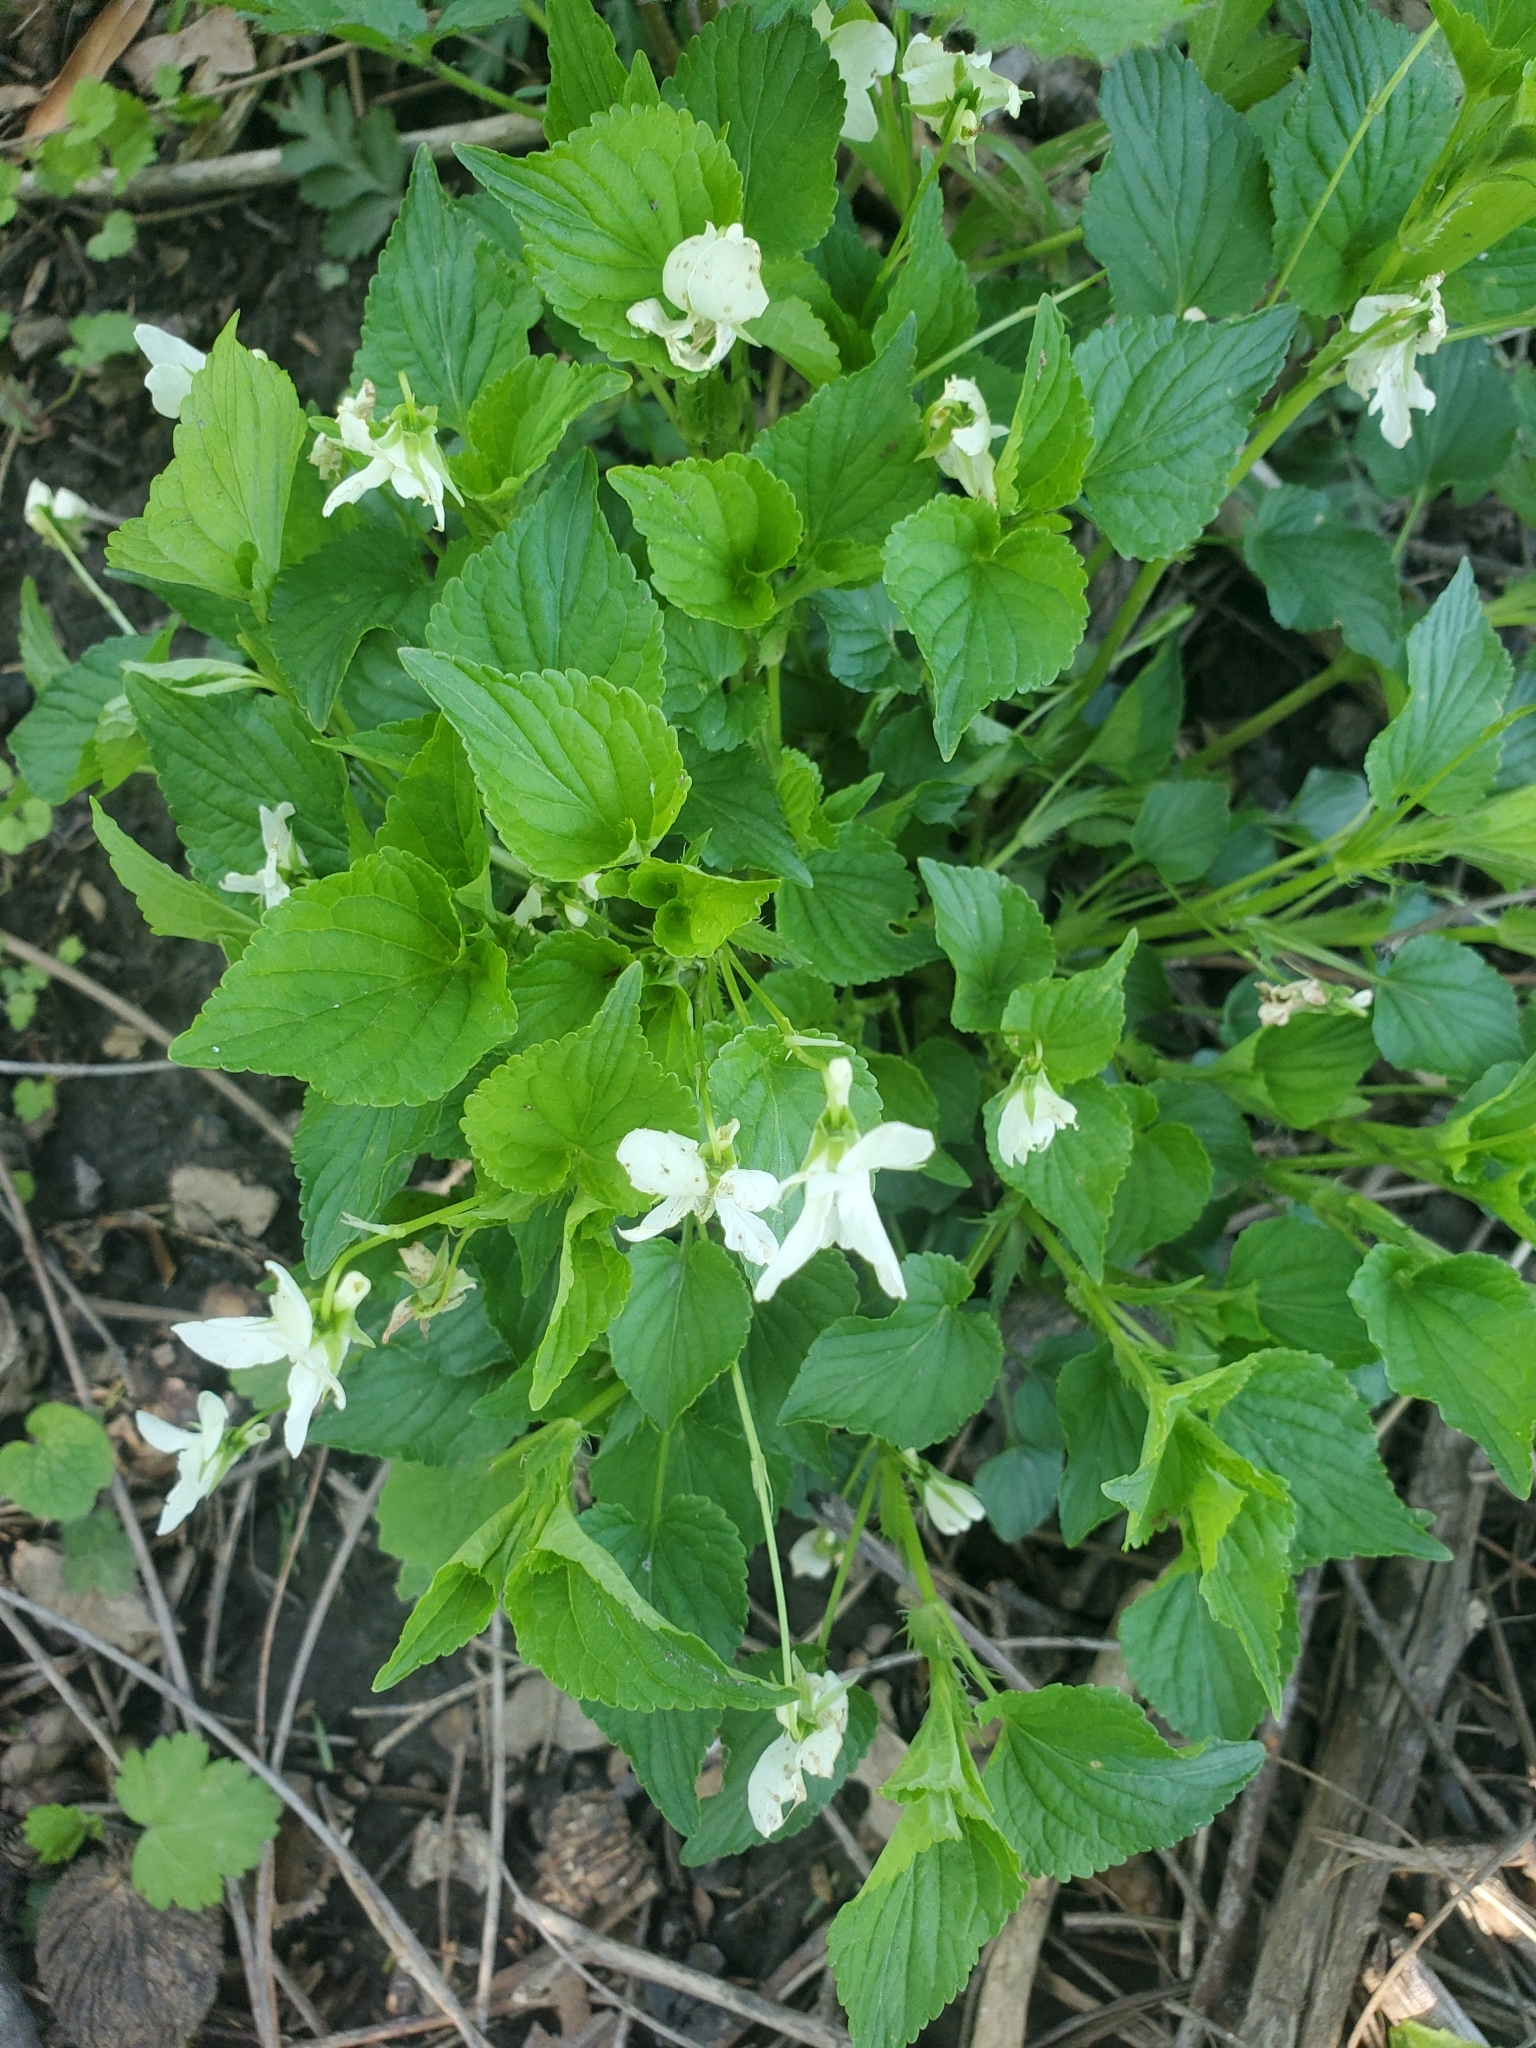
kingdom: Plantae
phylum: Tracheophyta
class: Magnoliopsida
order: Malpighiales
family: Violaceae
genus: Viola
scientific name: Viola striata
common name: Cream violet
